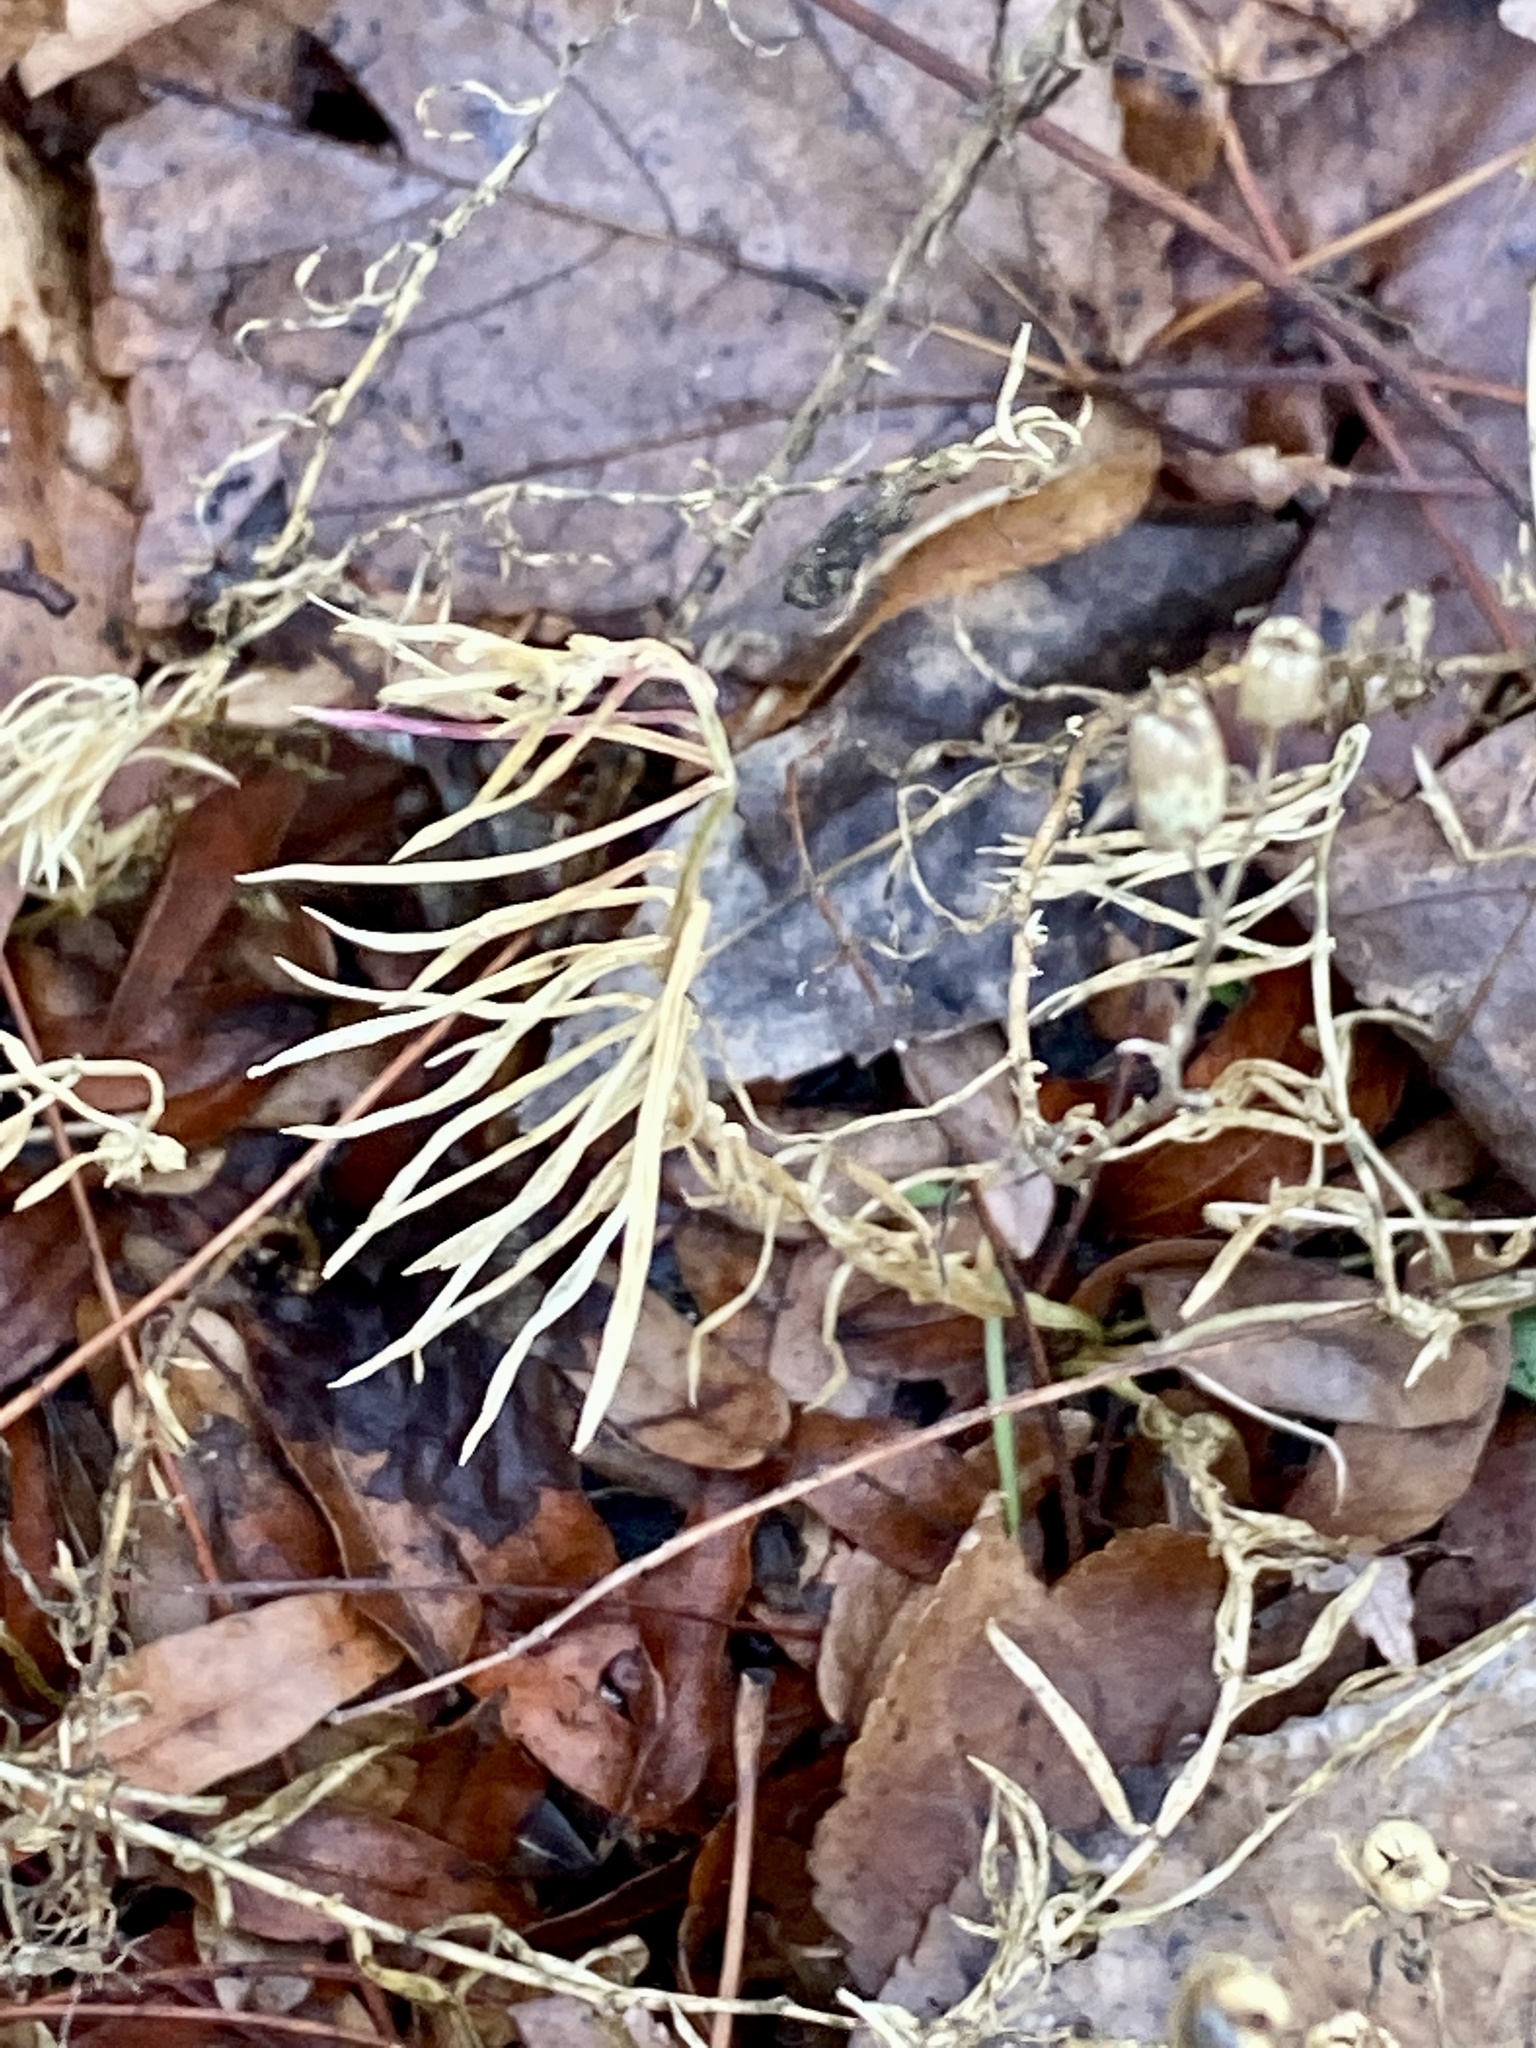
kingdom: Plantae
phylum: Tracheophyta
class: Magnoliopsida
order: Lamiales
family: Plantaginaceae
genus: Linaria
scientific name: Linaria vulgaris
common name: Butter and eggs
